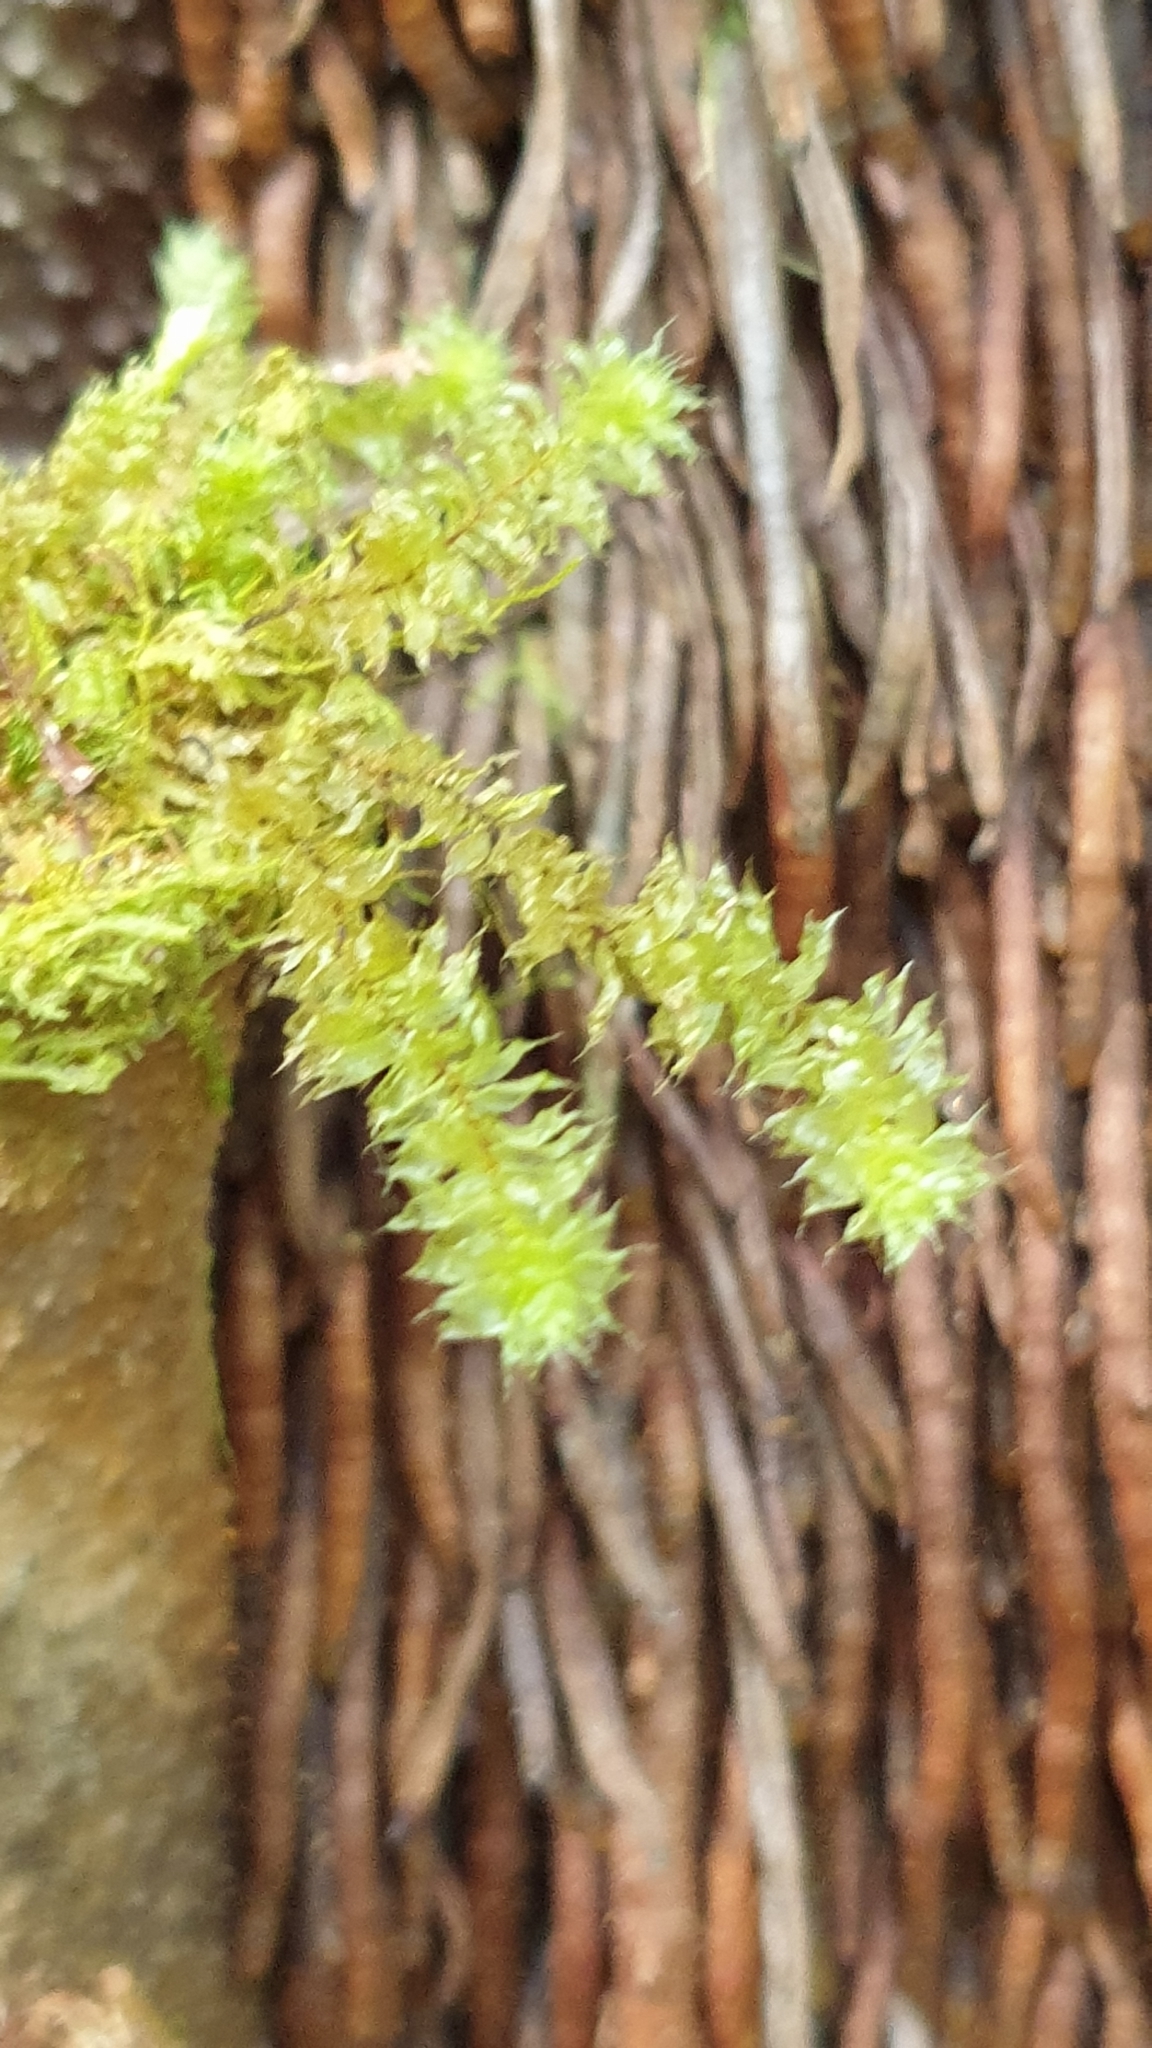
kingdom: Plantae
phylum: Bryophyta
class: Bryopsida
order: Ptychomniales
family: Ptychomniaceae
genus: Ptychomnion
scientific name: Ptychomnion aciculare
